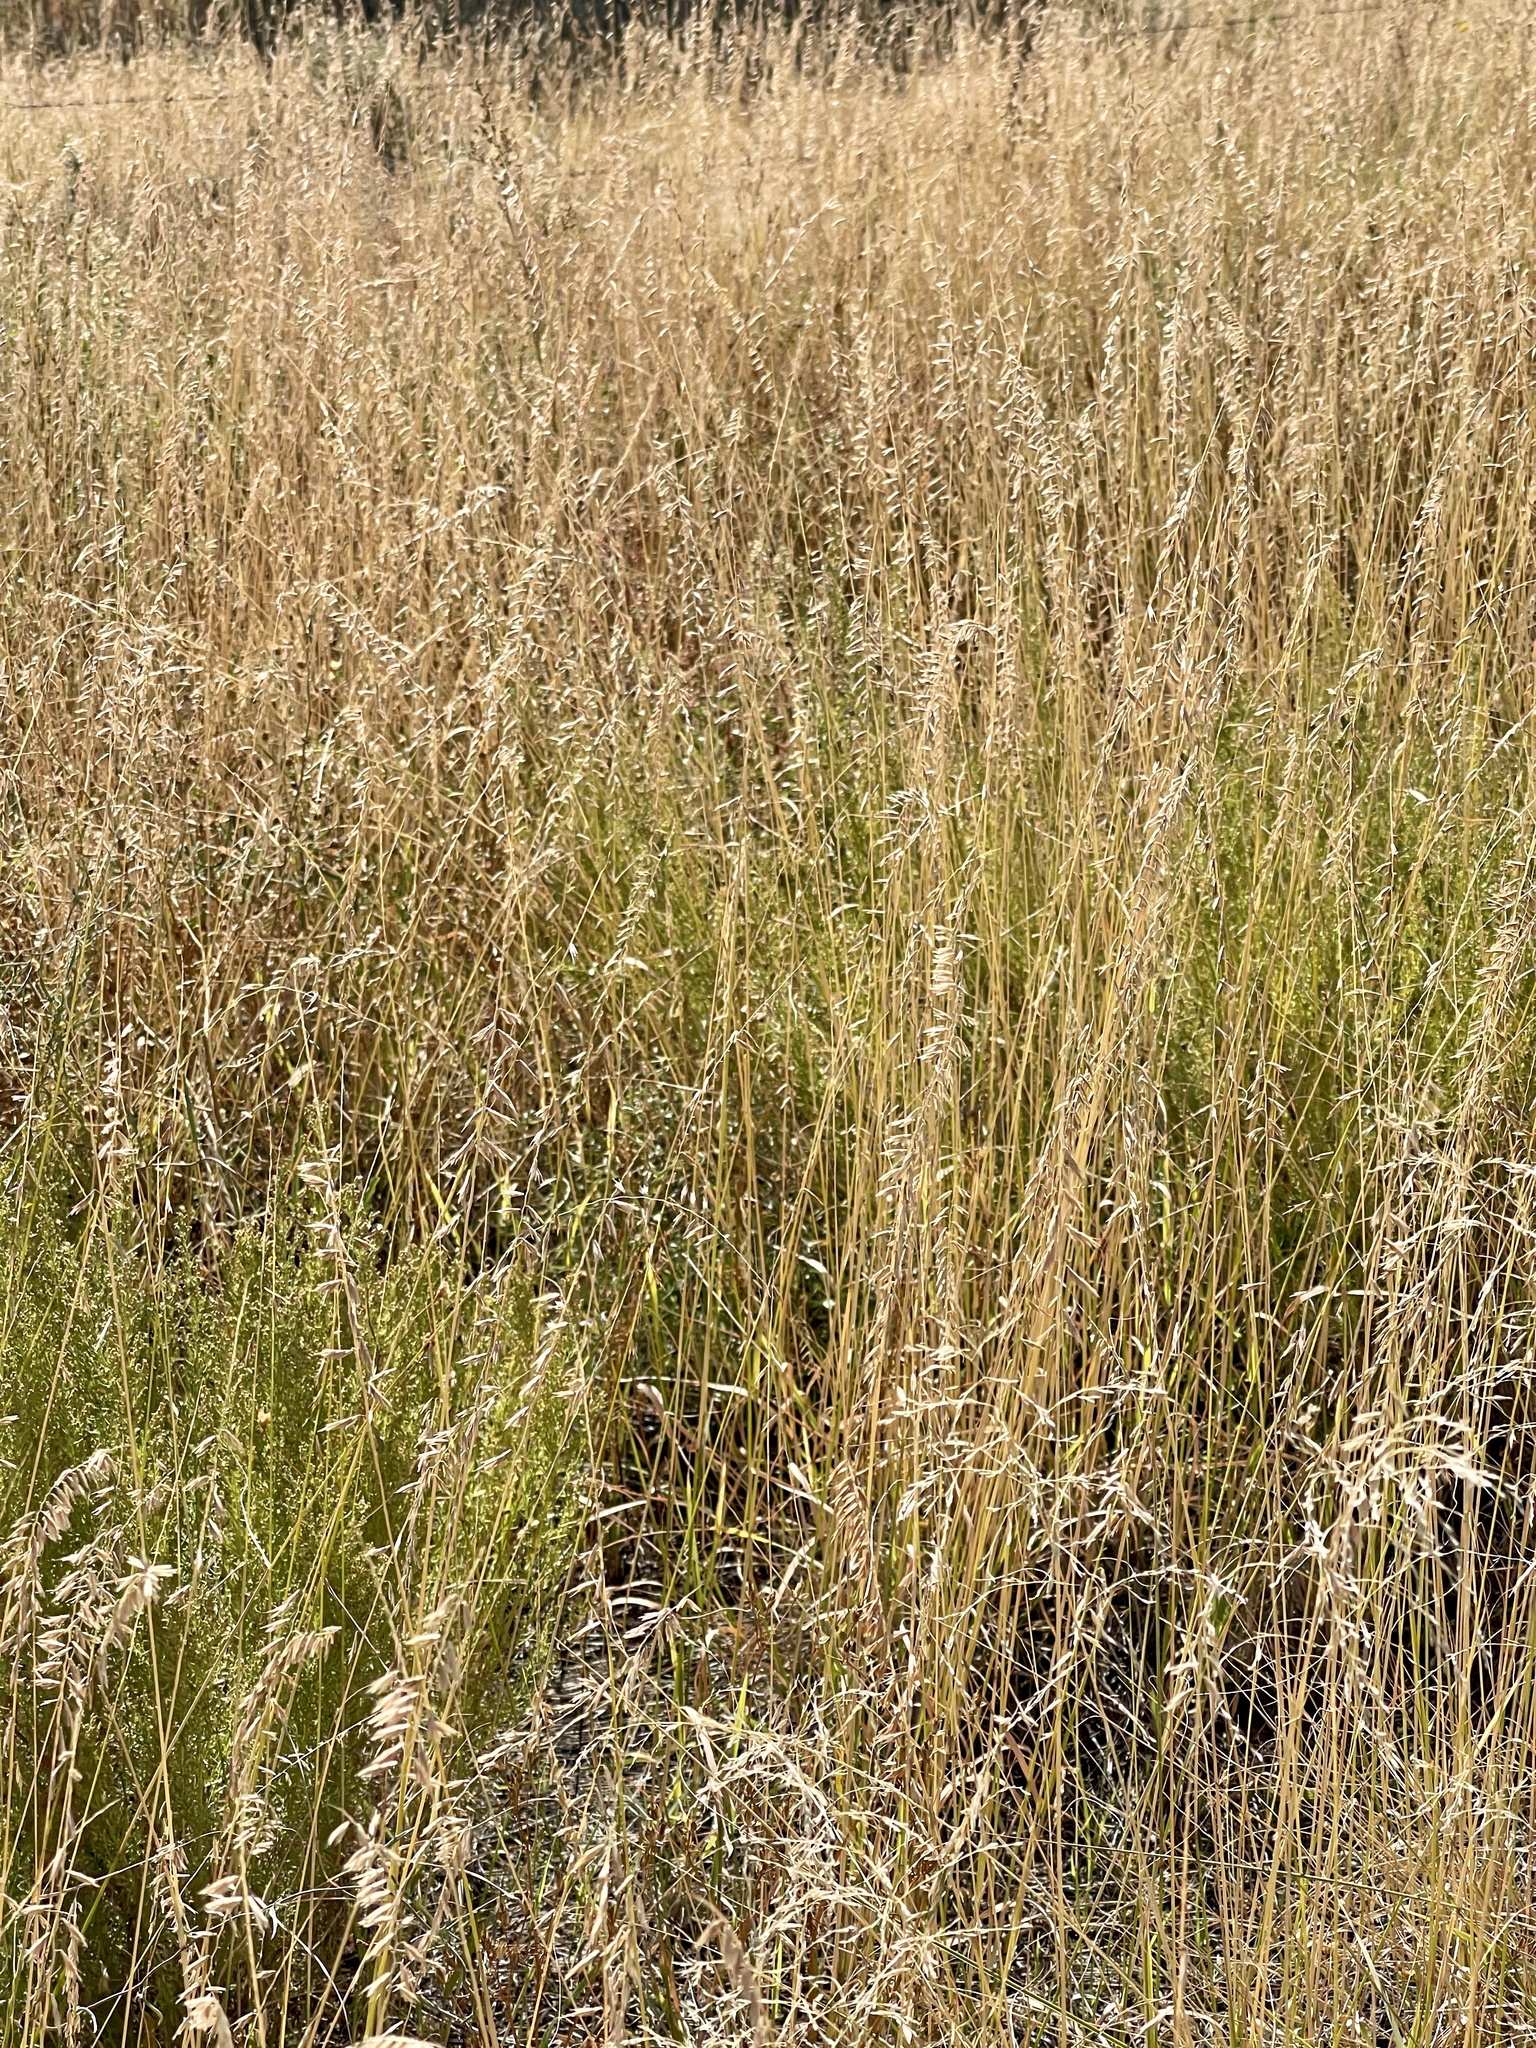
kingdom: Plantae
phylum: Tracheophyta
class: Liliopsida
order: Poales
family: Poaceae
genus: Bouteloua
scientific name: Bouteloua curtipendula
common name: Side-oats grama
